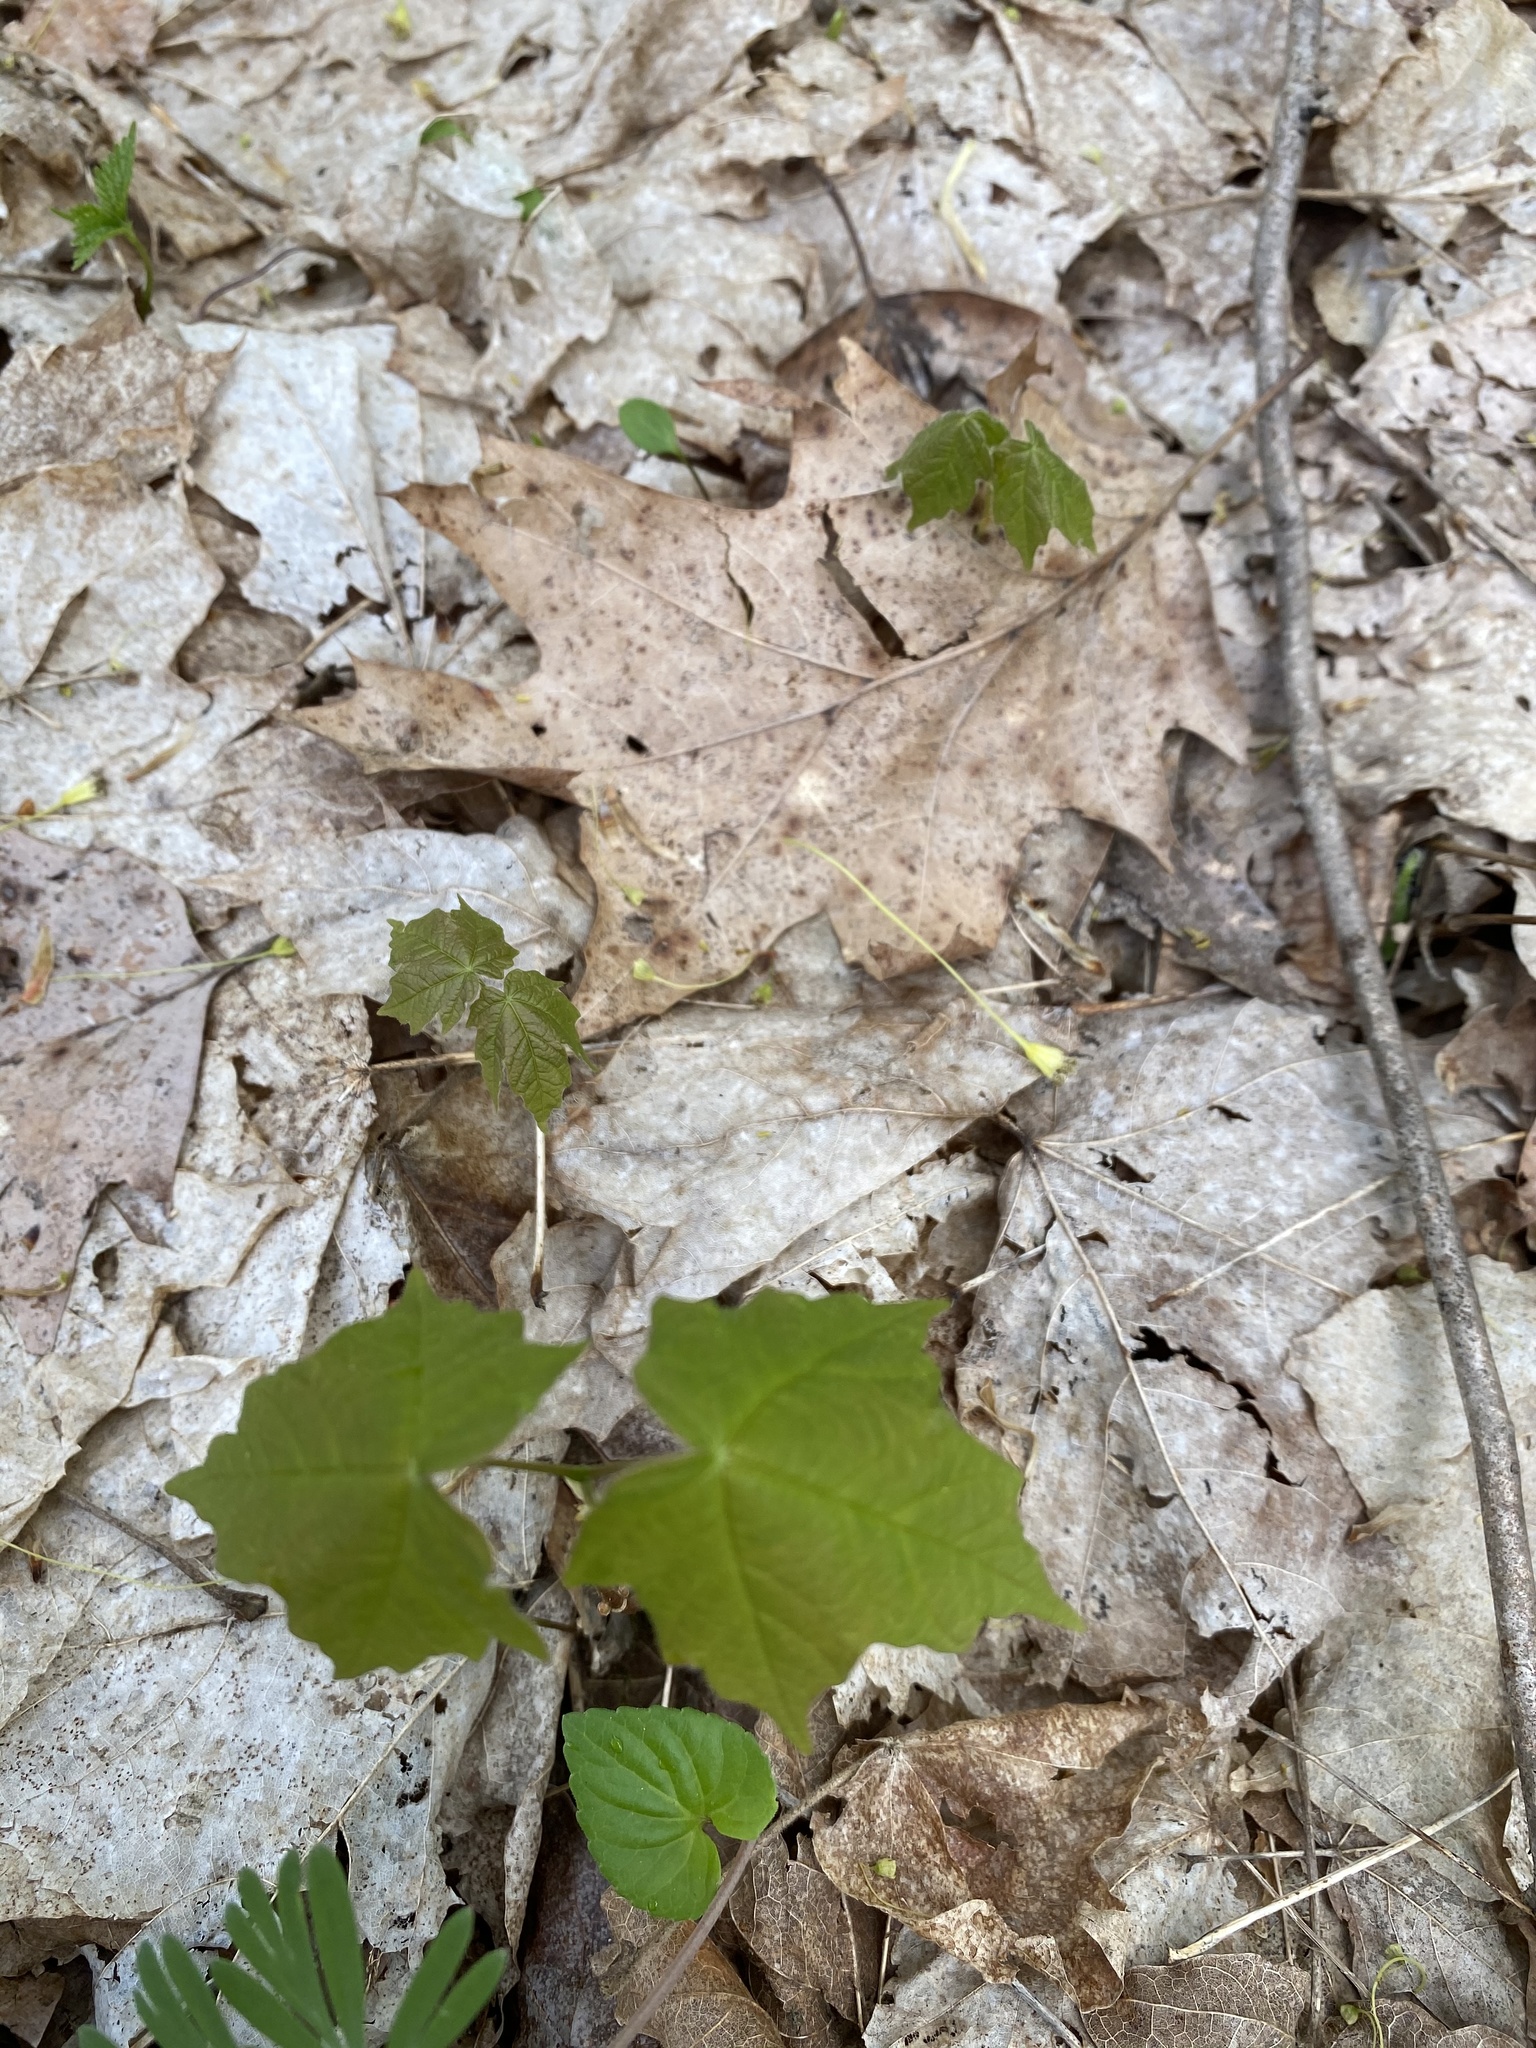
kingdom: Plantae
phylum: Tracheophyta
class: Magnoliopsida
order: Sapindales
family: Sapindaceae
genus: Acer
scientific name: Acer nigrum
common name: Black maple
